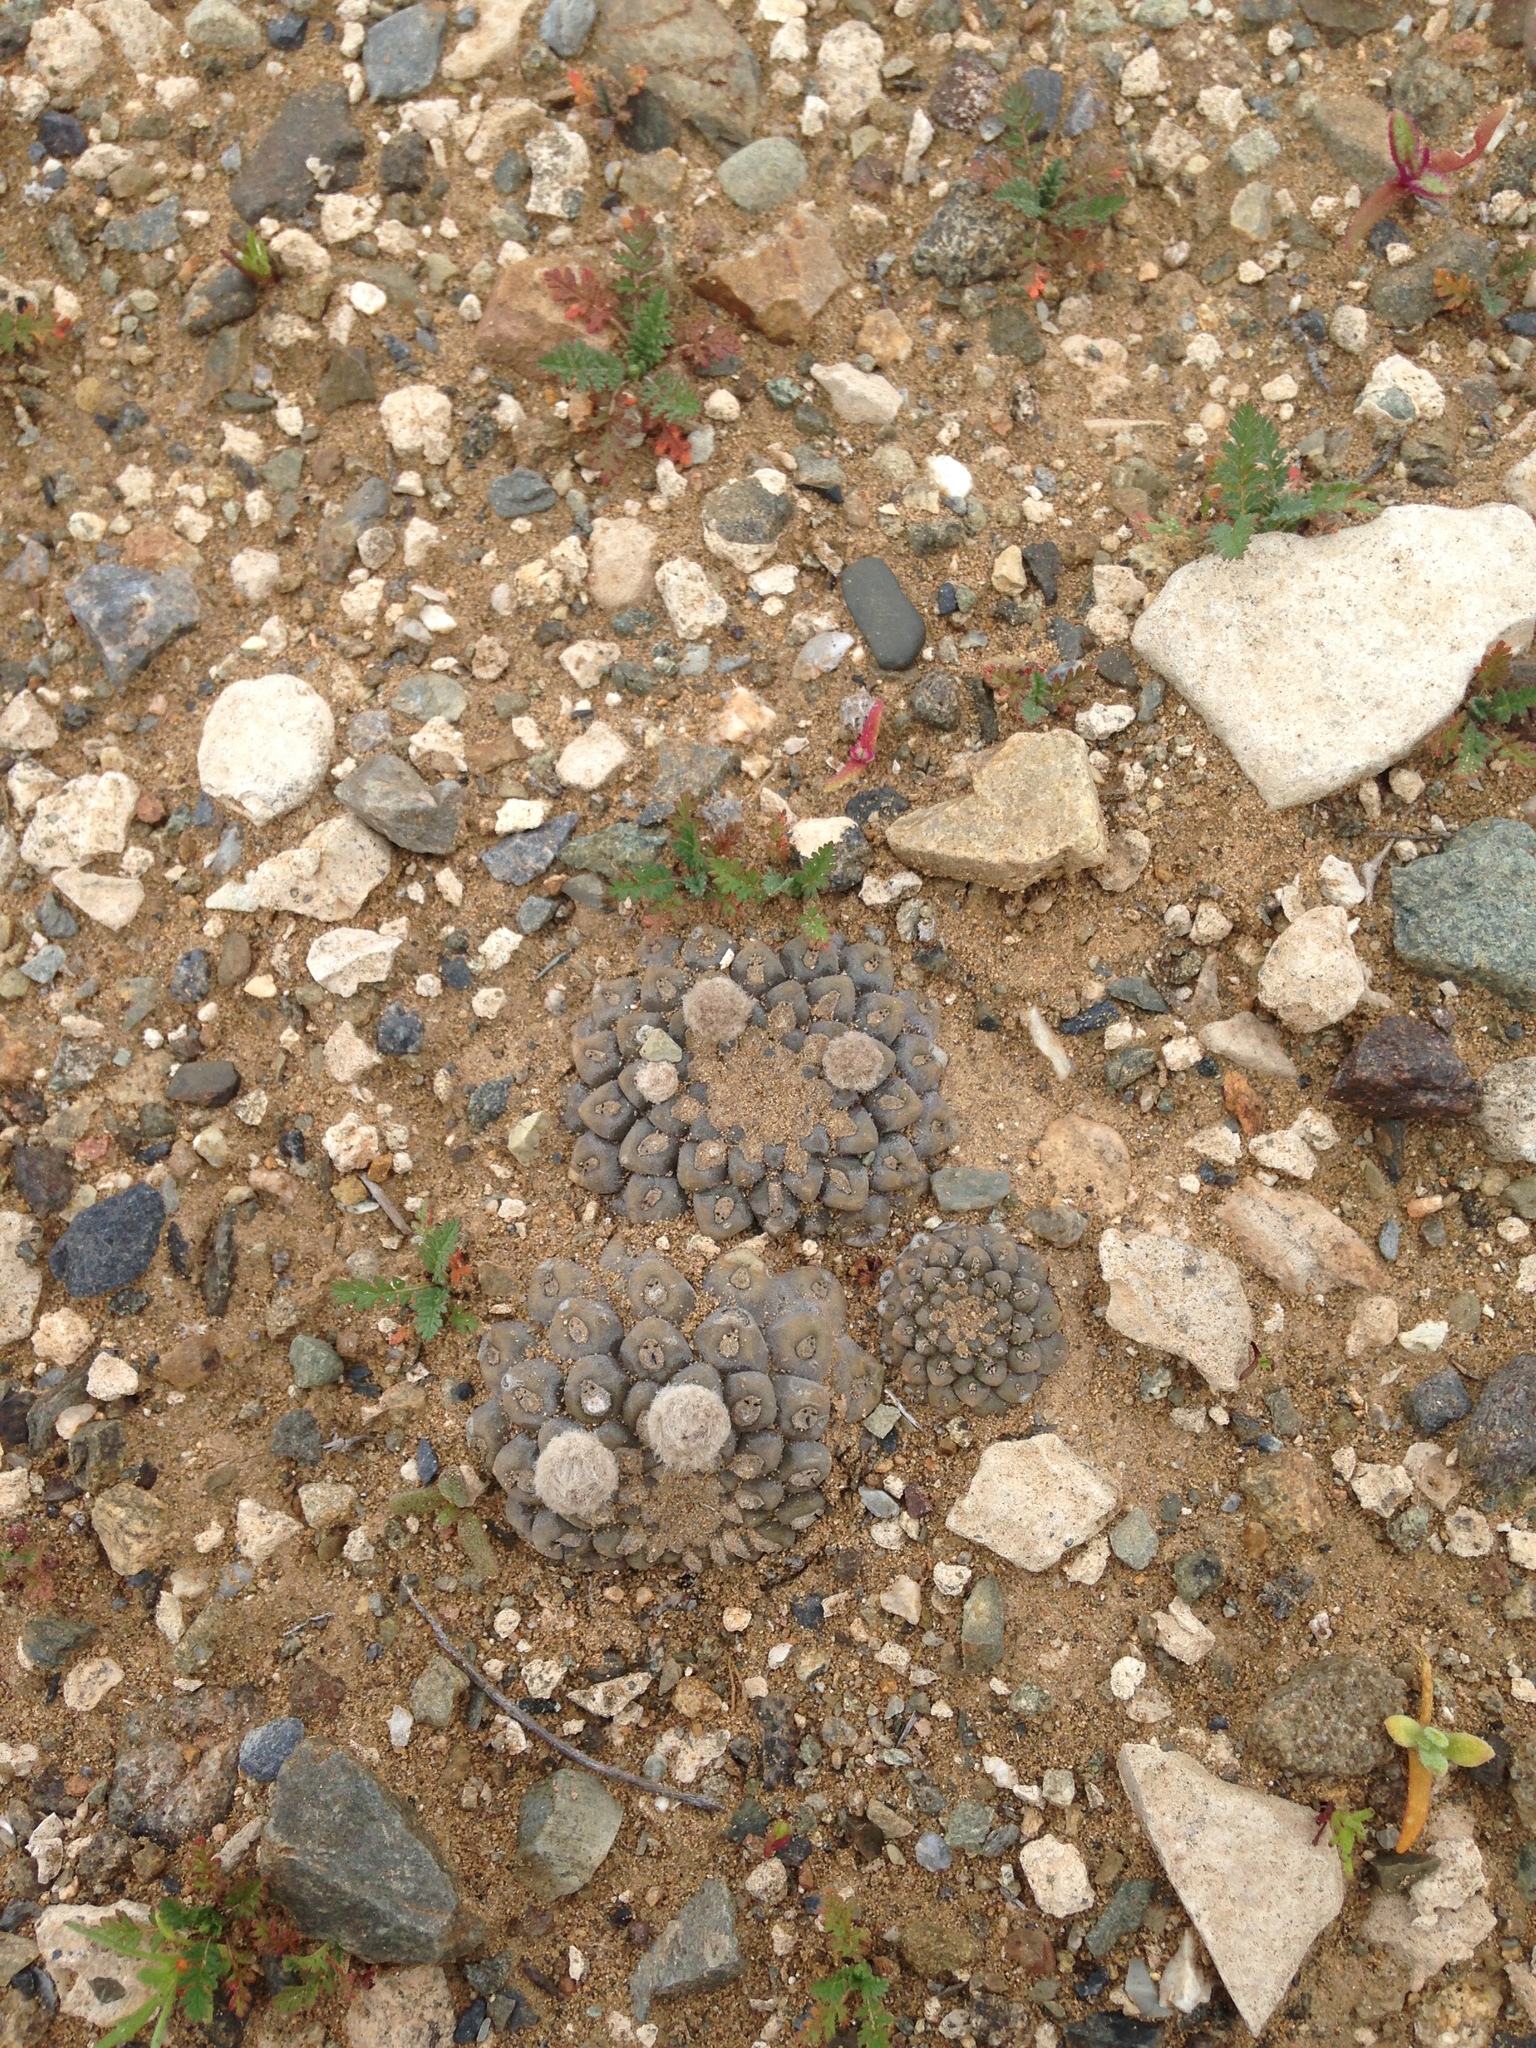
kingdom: Plantae
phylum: Tracheophyta
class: Magnoliopsida
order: Caryophyllales
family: Cactaceae
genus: Eriosyce
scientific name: Eriosyce tenebrica
